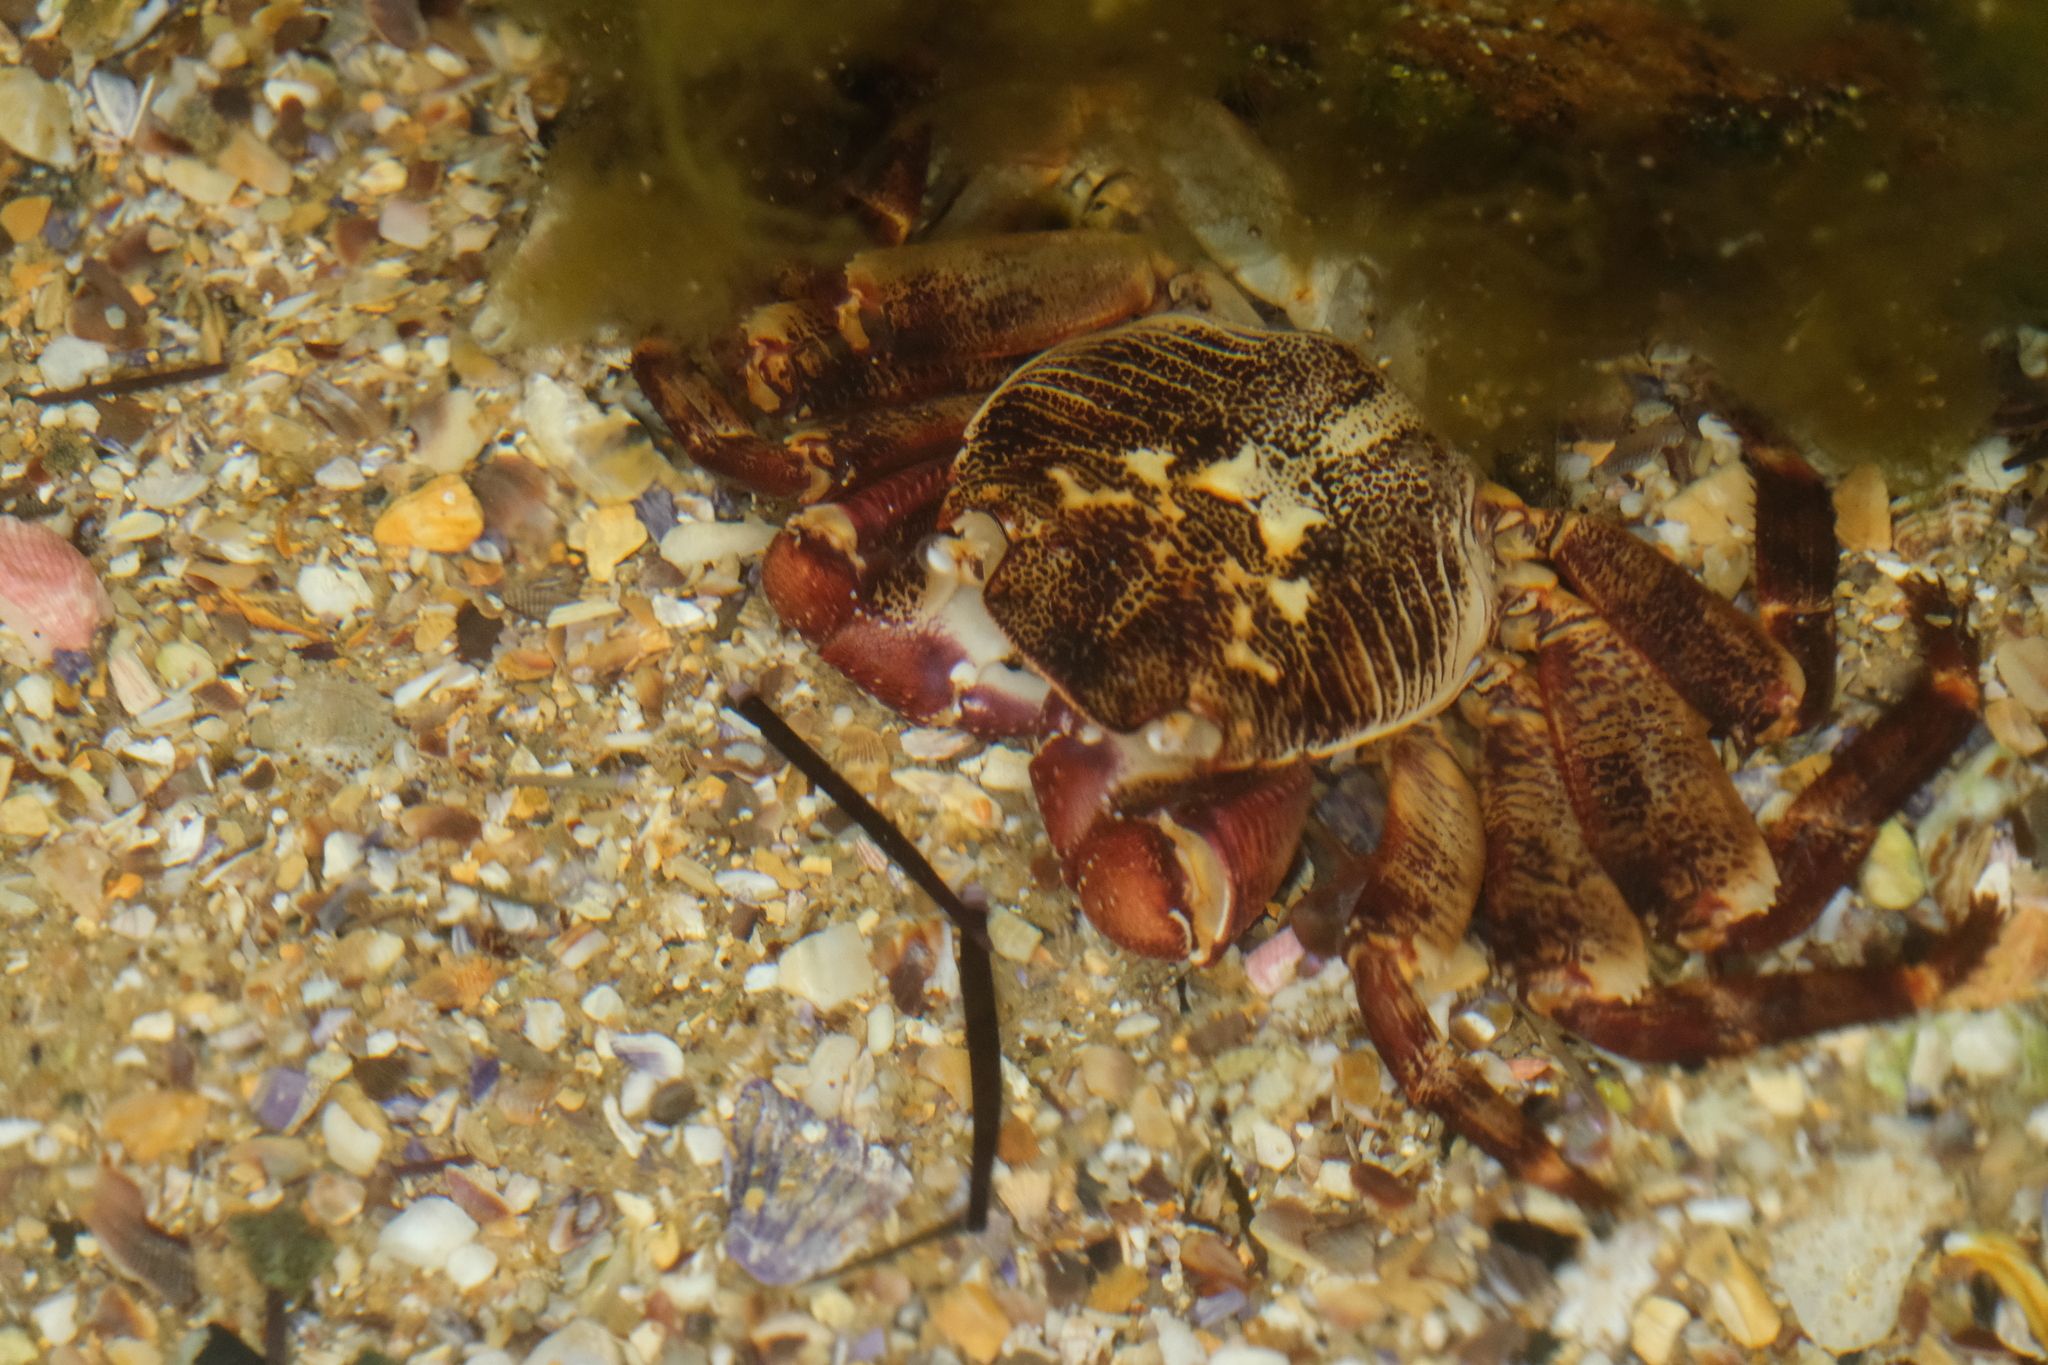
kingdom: Animalia
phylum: Arthropoda
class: Malacostraca
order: Decapoda
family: Grapsidae
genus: Leptograpsus
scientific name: Leptograpsus variegatus
